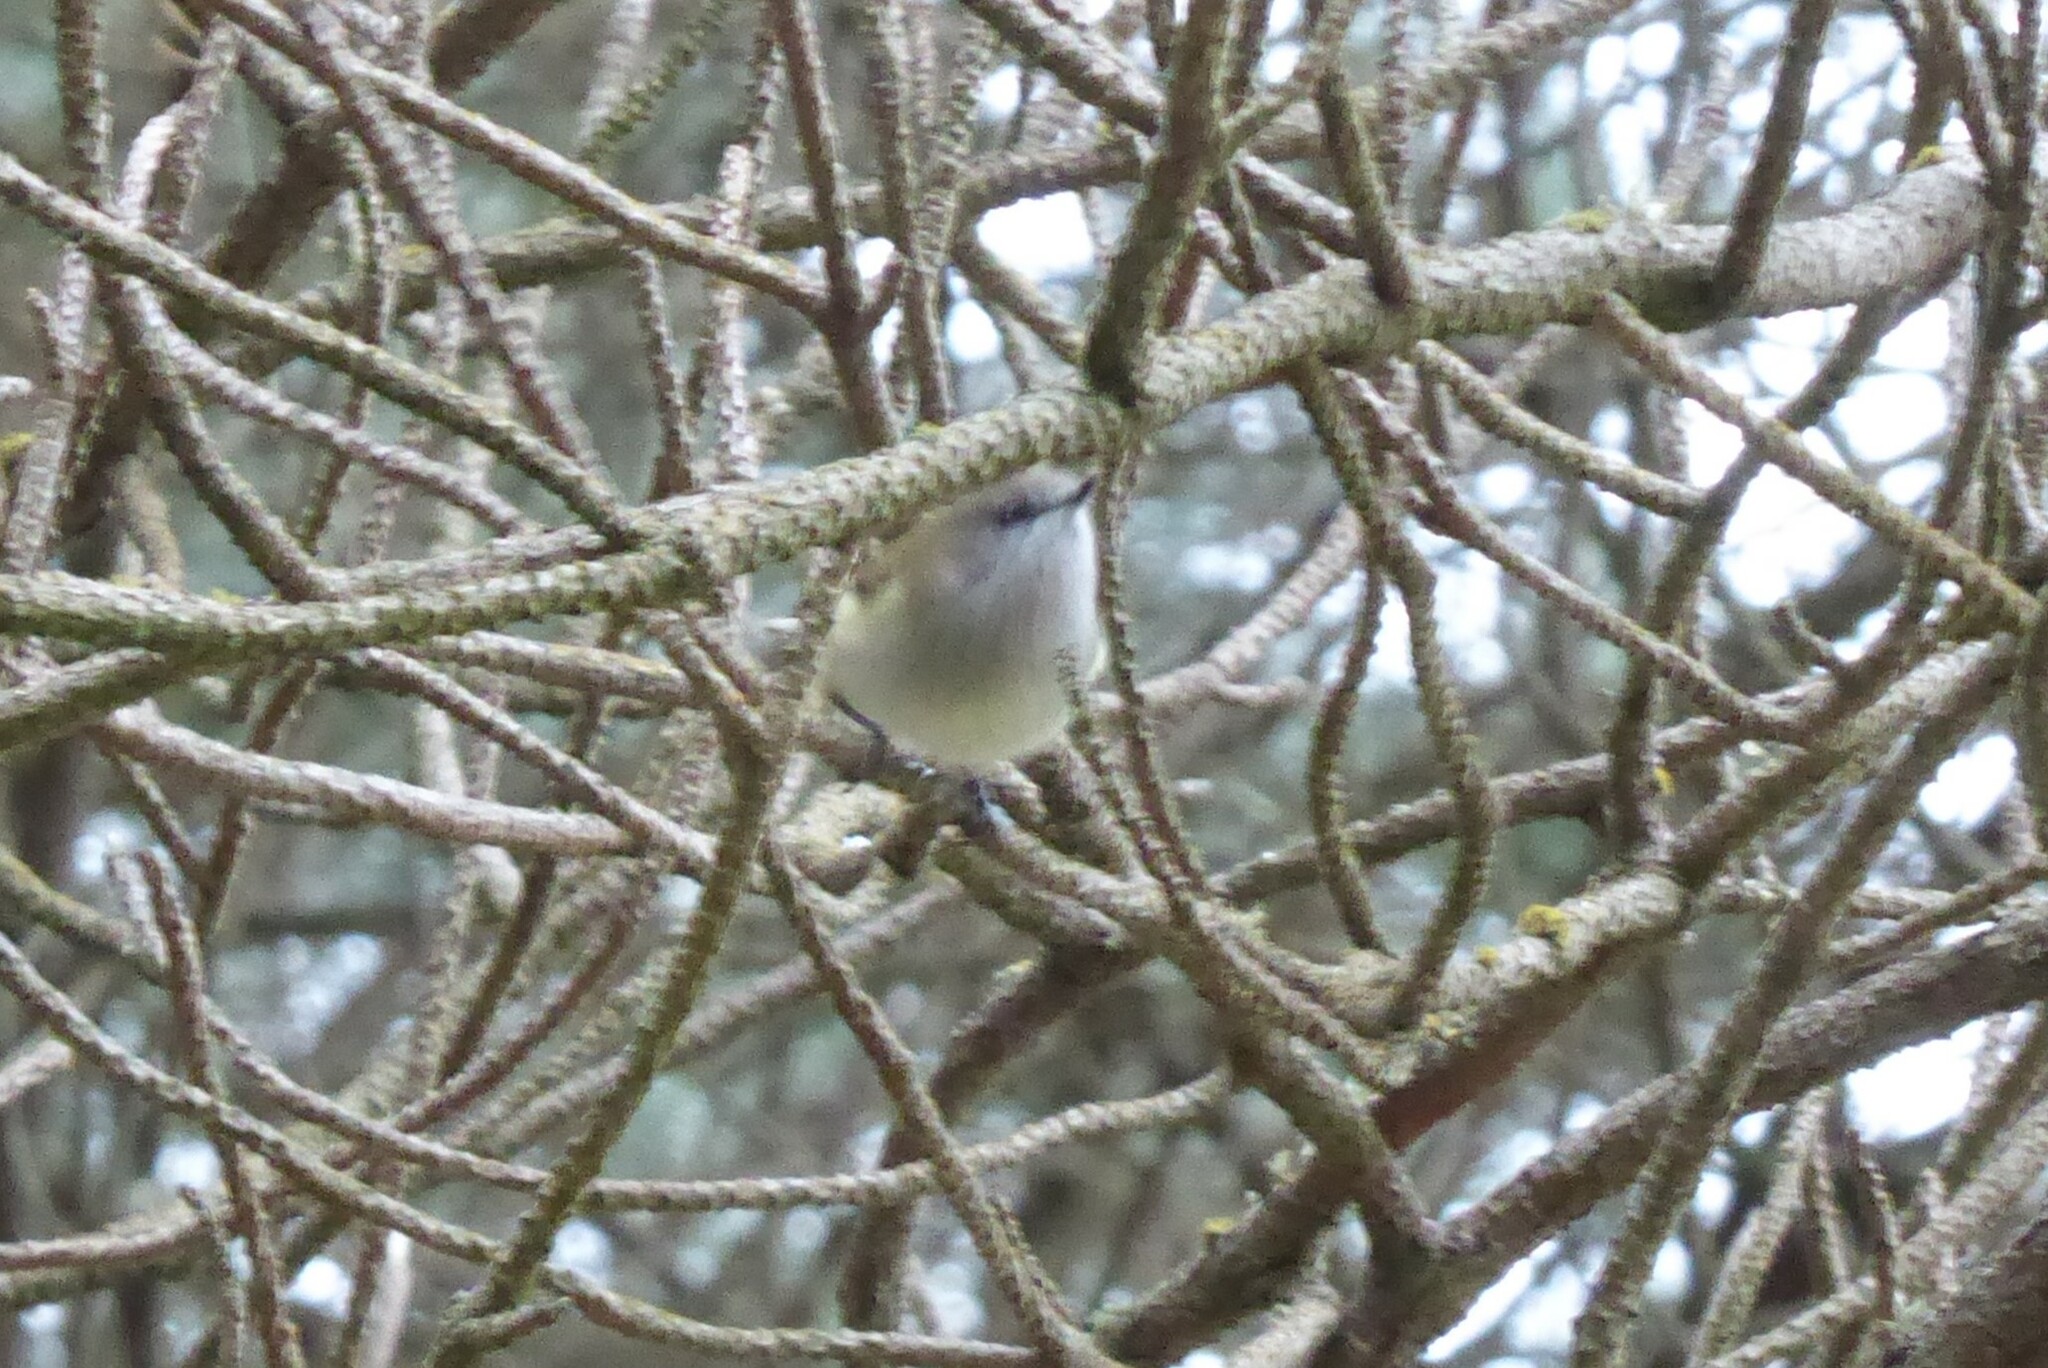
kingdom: Animalia
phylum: Chordata
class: Aves
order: Passeriformes
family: Acanthizidae
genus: Gerygone
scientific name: Gerygone igata
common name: Grey gerygone
